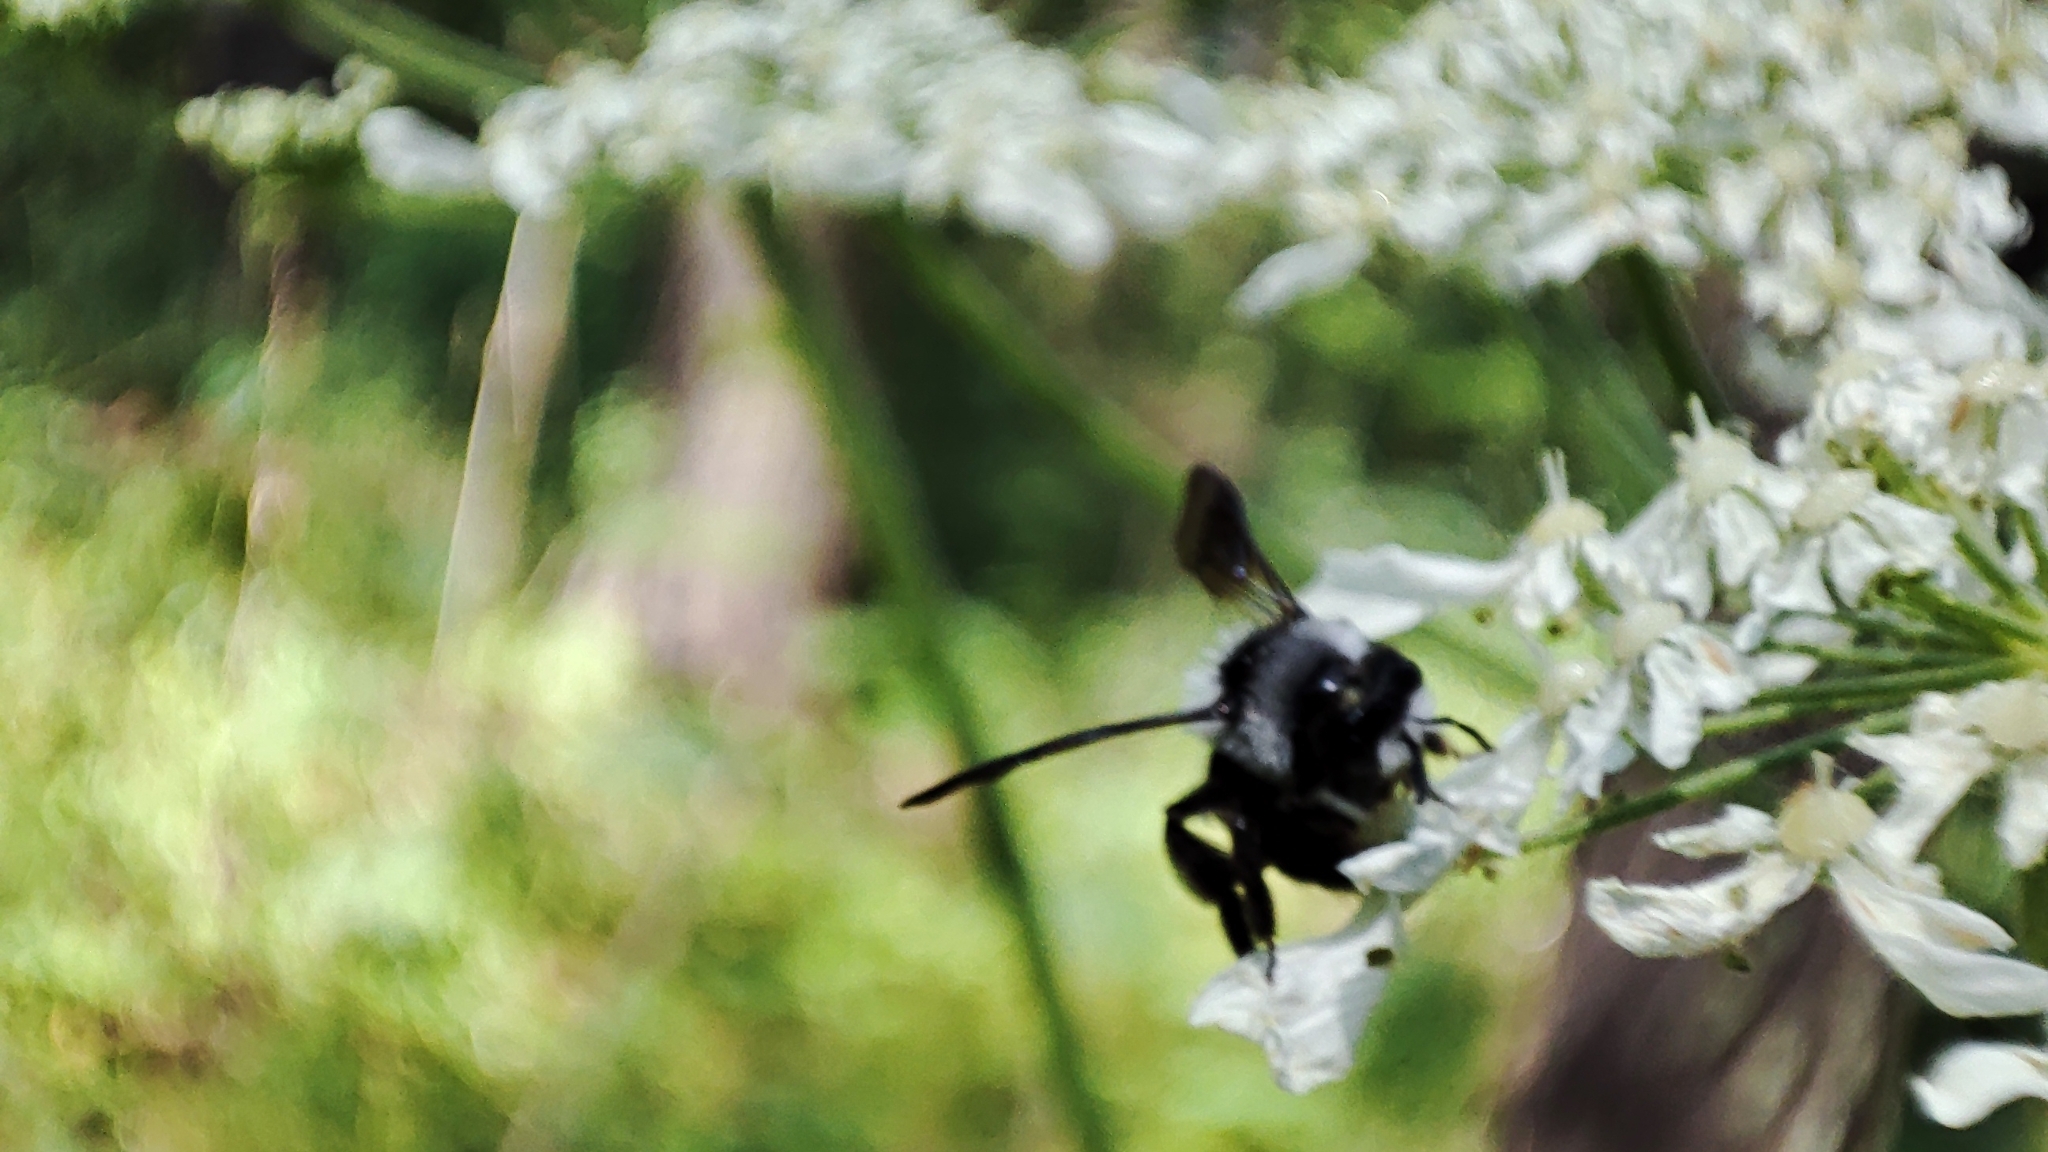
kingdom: Animalia
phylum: Arthropoda
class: Insecta
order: Hymenoptera
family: Andrenidae
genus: Andrena
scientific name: Andrena cineraria
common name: Ashy mining bee
